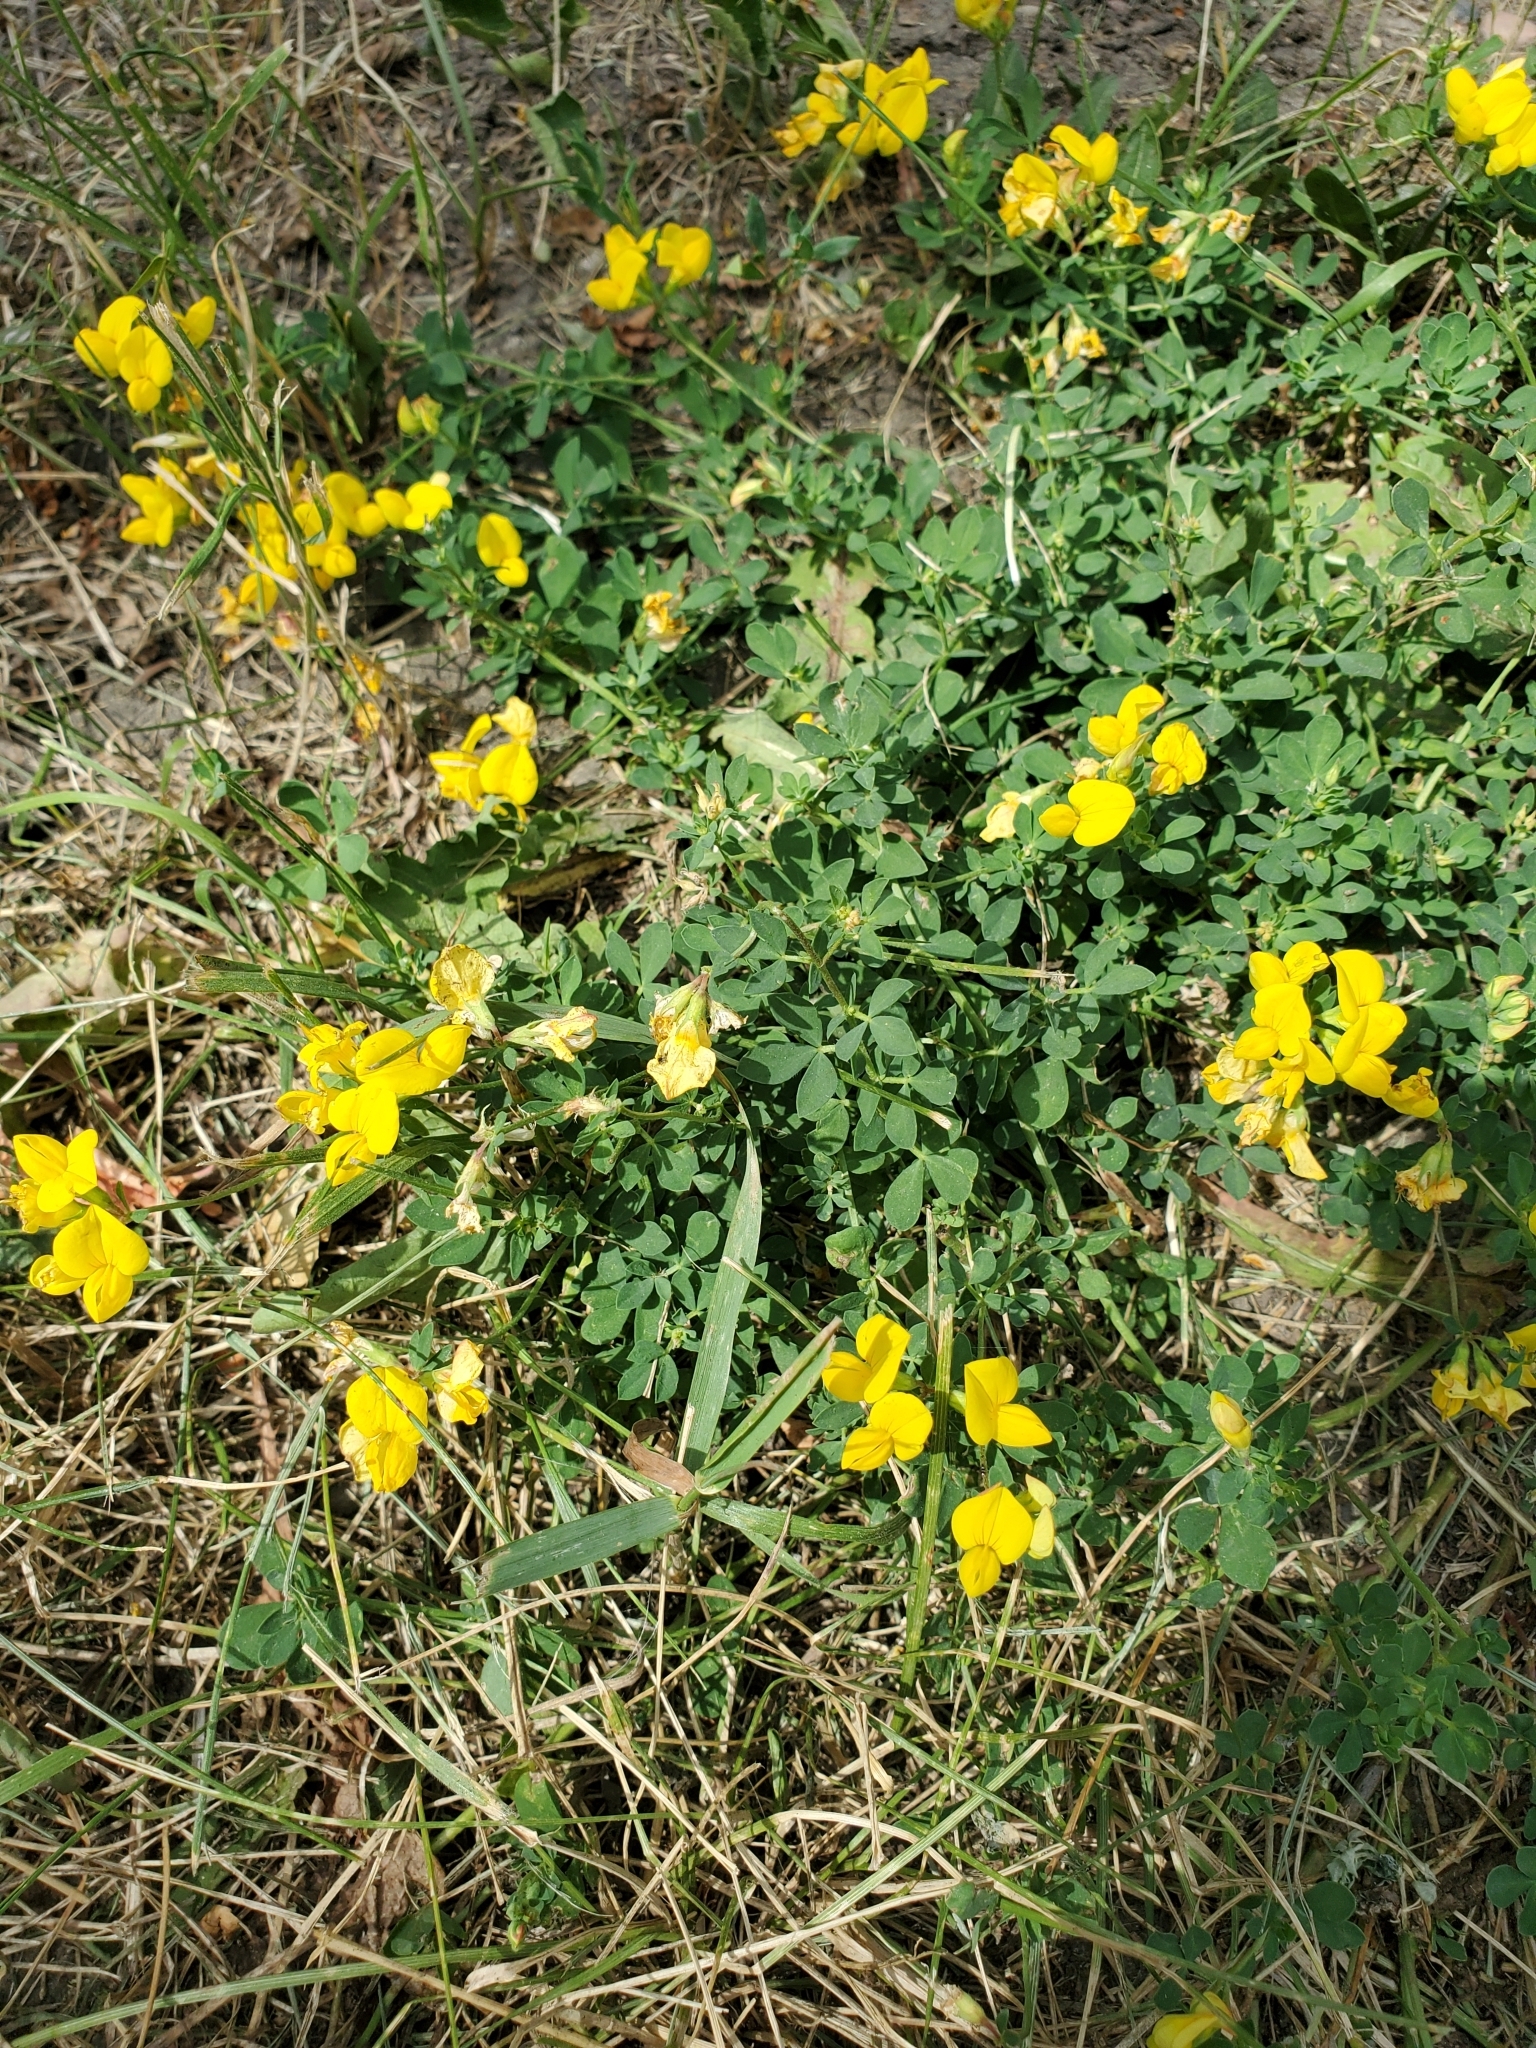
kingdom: Plantae
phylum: Tracheophyta
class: Magnoliopsida
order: Fabales
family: Fabaceae
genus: Lotus
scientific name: Lotus corniculatus
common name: Common bird's-foot-trefoil
